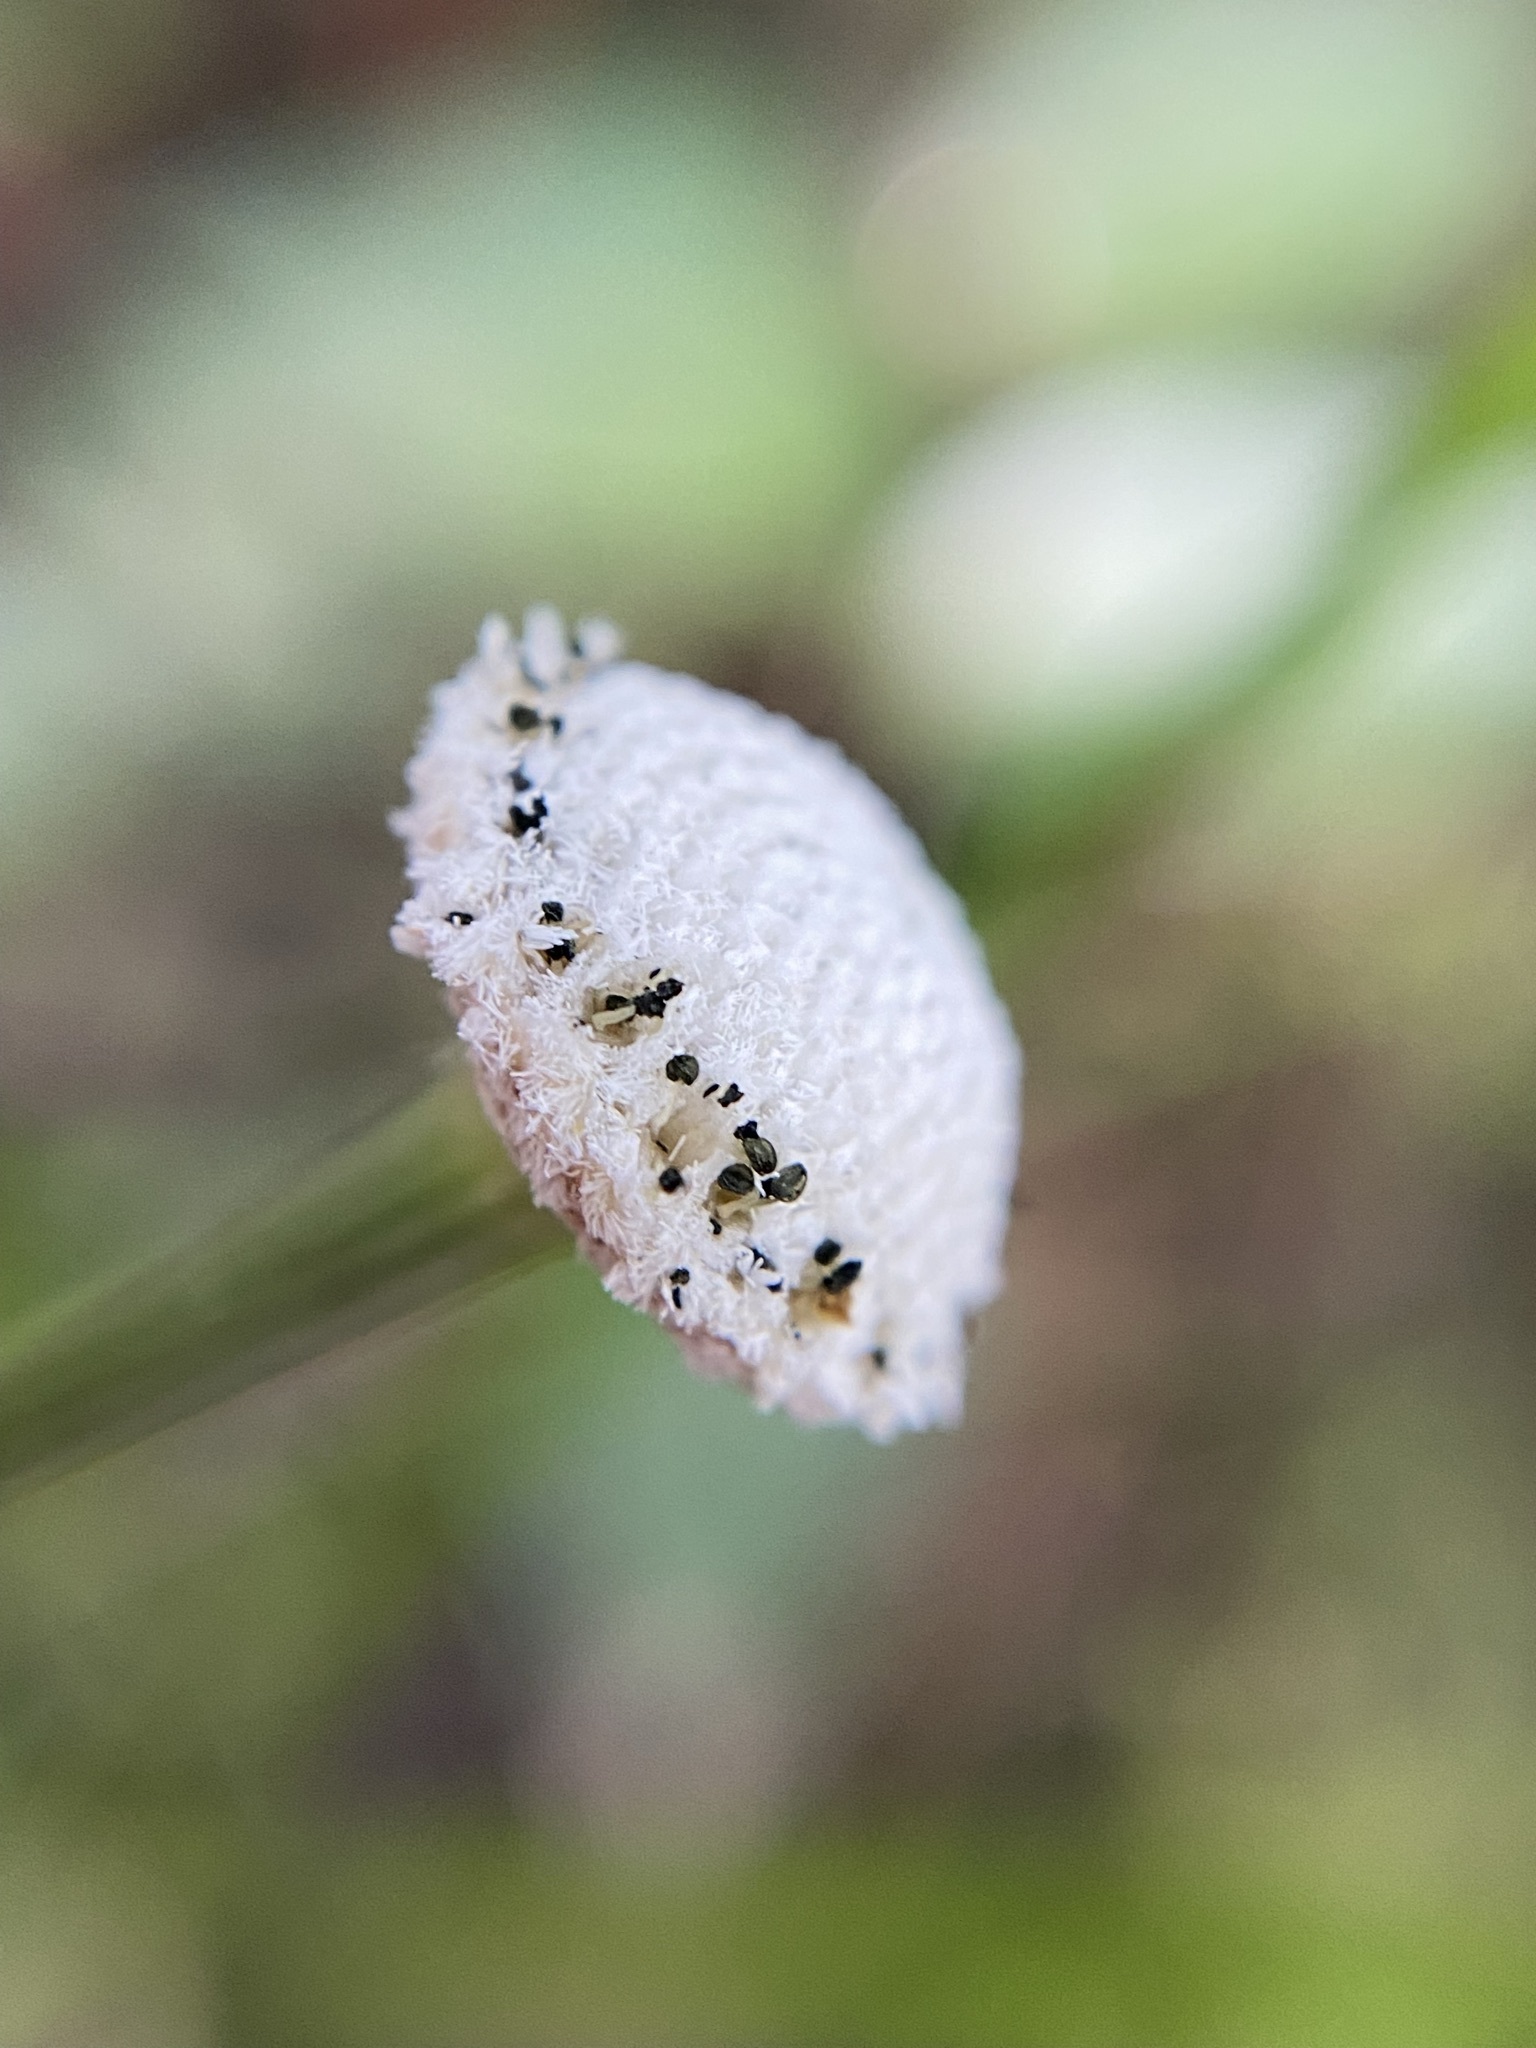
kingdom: Plantae
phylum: Tracheophyta
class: Liliopsida
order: Poales
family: Eriocaulaceae
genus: Eriocaulon
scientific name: Eriocaulon decangulare
